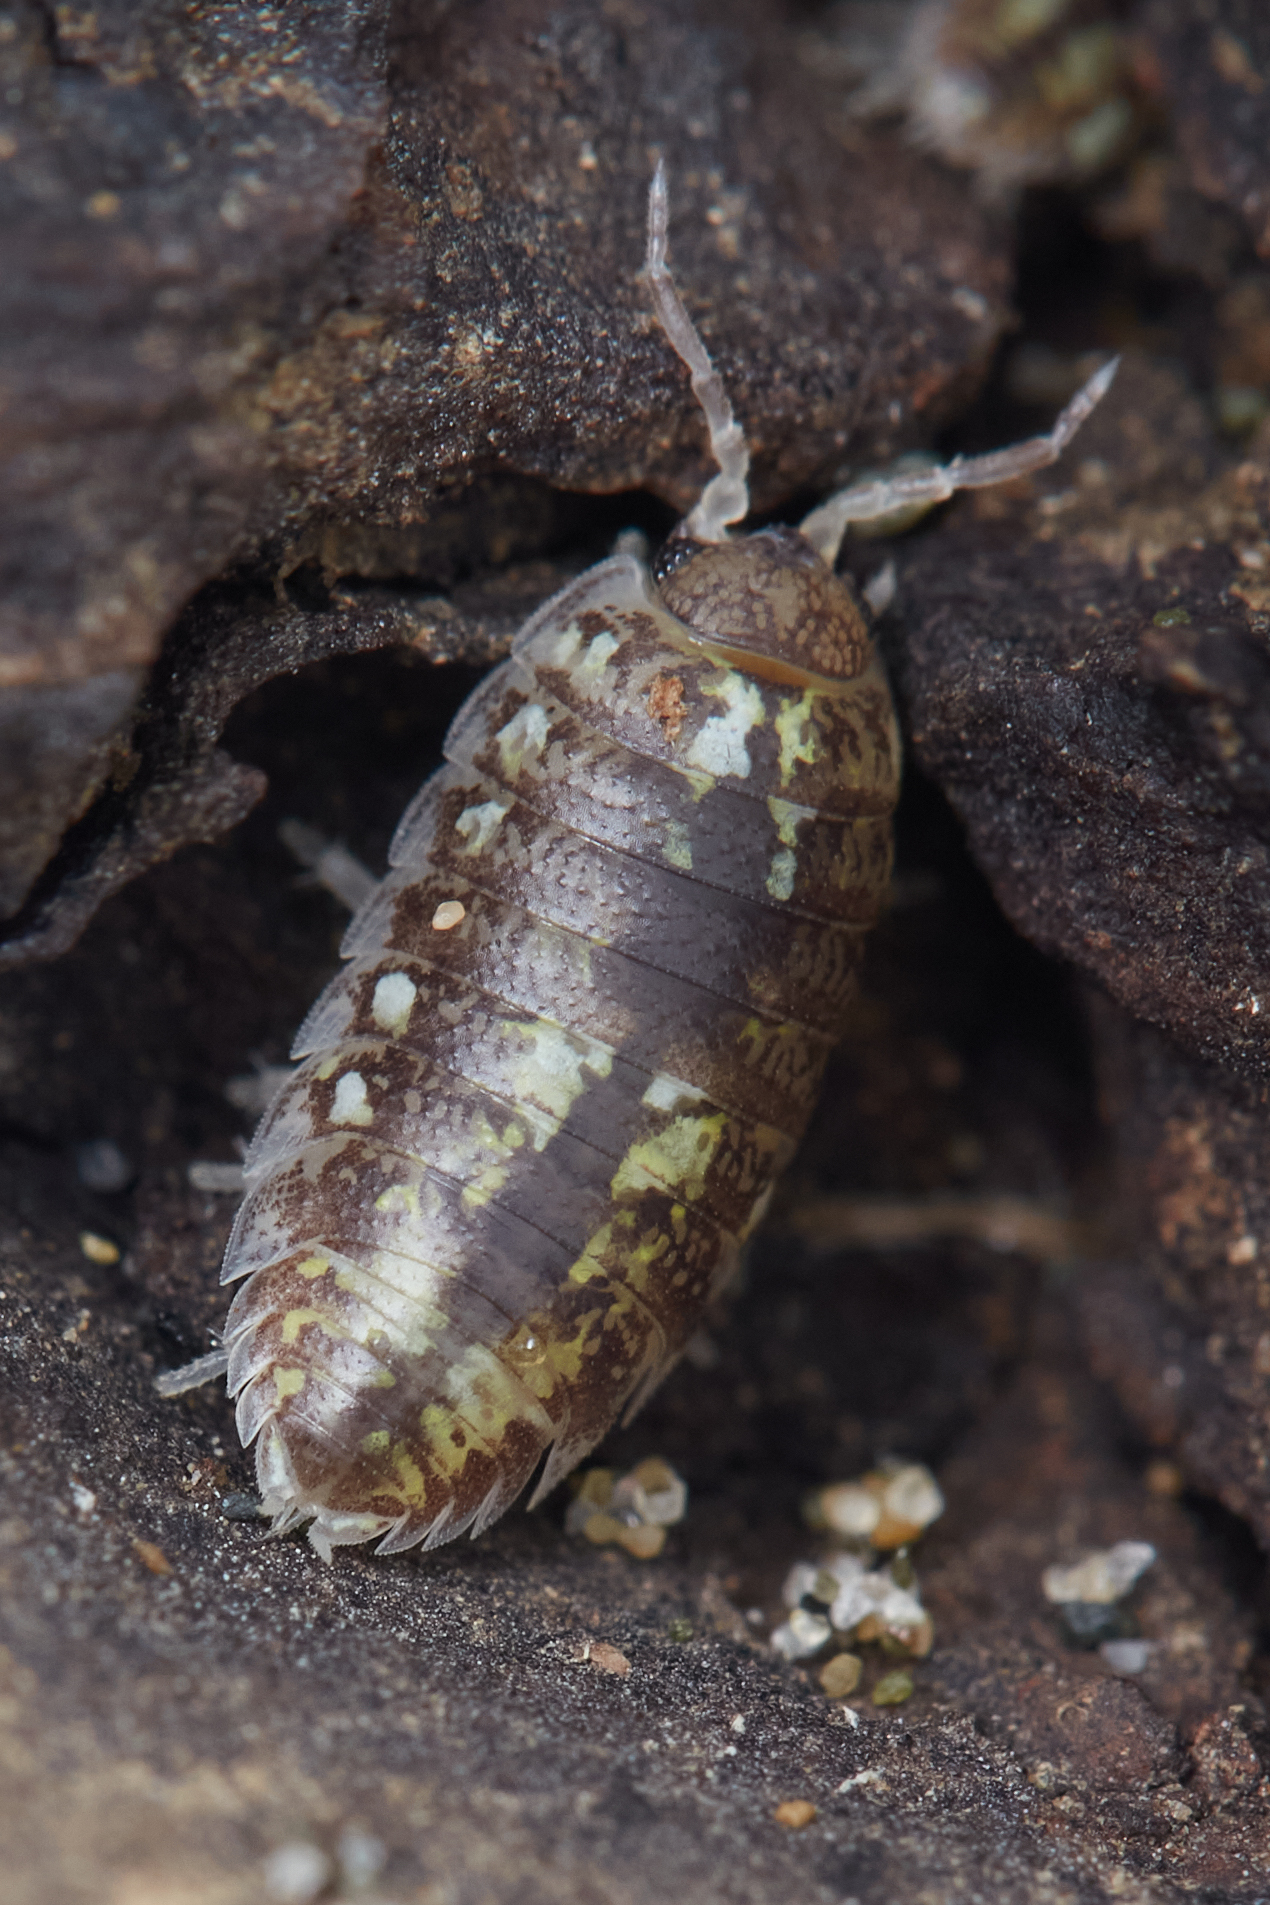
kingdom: Animalia
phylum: Arthropoda
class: Malacostraca
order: Isopoda
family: Alloniscidae
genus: Alloniscus
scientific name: Alloniscus perconvexus
